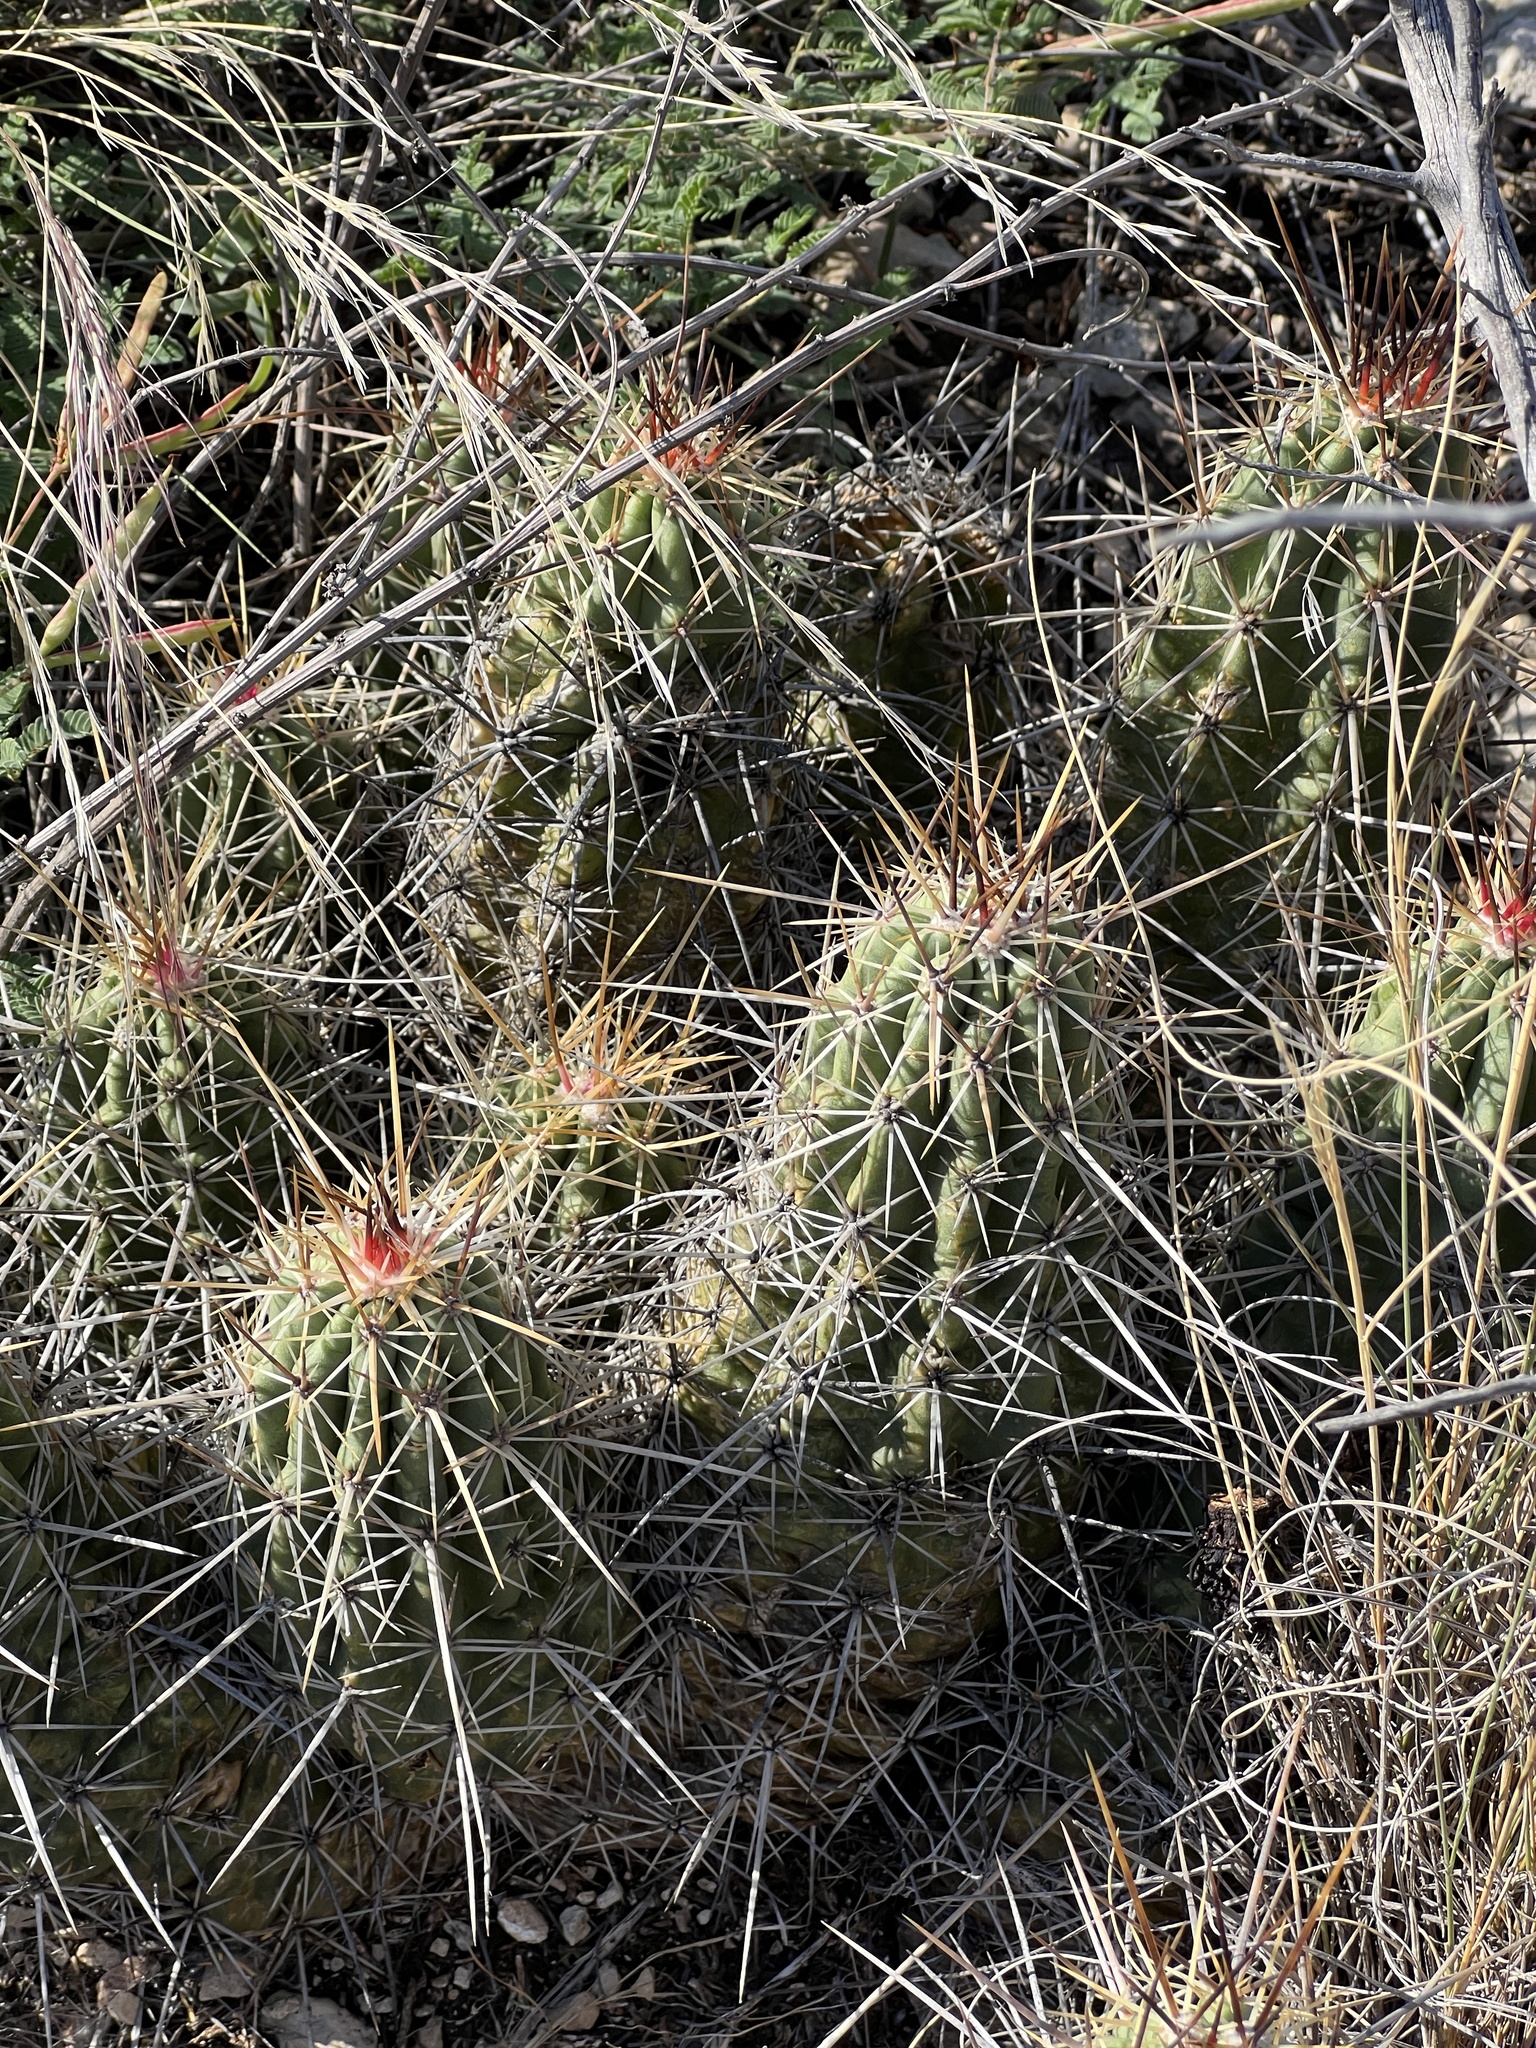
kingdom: Plantae
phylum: Tracheophyta
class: Magnoliopsida
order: Caryophyllales
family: Cactaceae
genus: Echinocereus
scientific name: Echinocereus enneacanthus
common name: Pitaya
